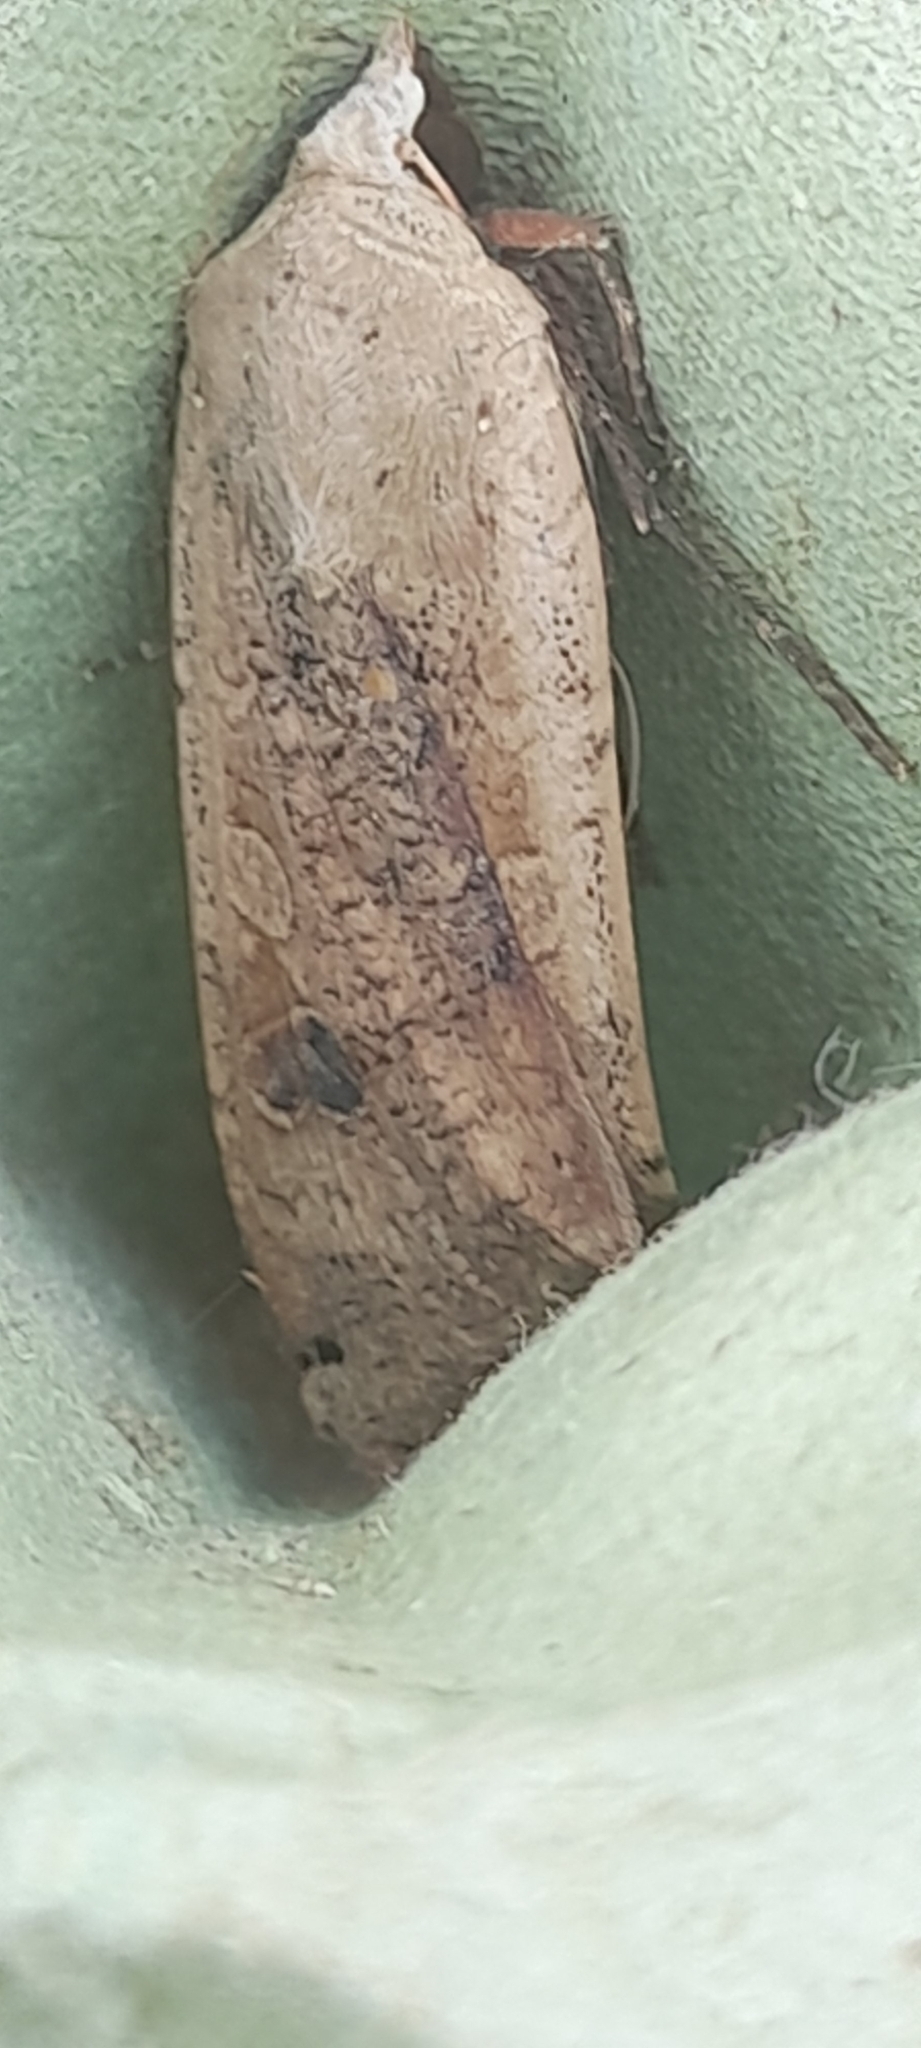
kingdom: Animalia
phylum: Arthropoda
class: Insecta
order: Lepidoptera
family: Noctuidae
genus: Noctua
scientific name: Noctua pronuba
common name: Large yellow underwing
